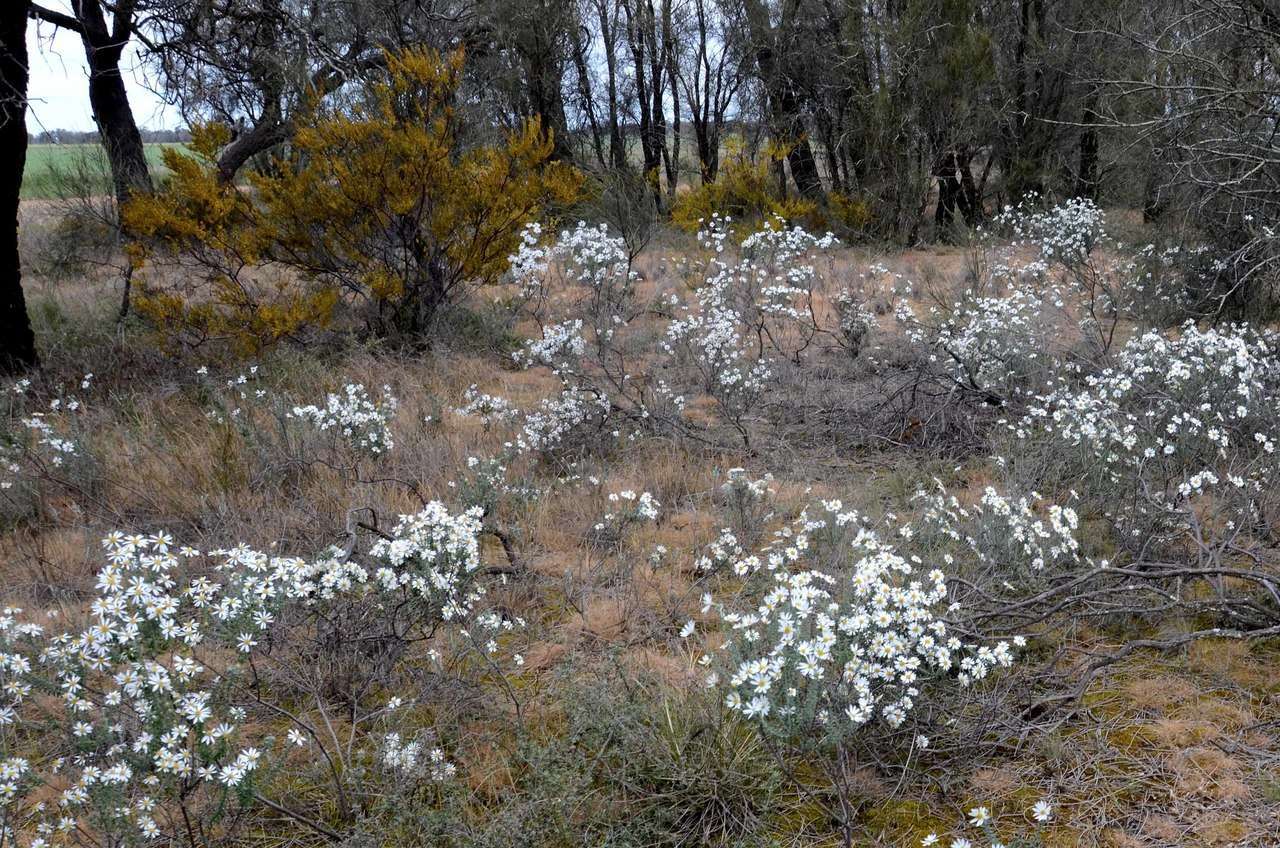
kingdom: Plantae
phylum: Tracheophyta
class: Magnoliopsida
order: Asterales
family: Asteraceae
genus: Olearia
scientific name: Olearia pimeleoides
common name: Showy daisybush
